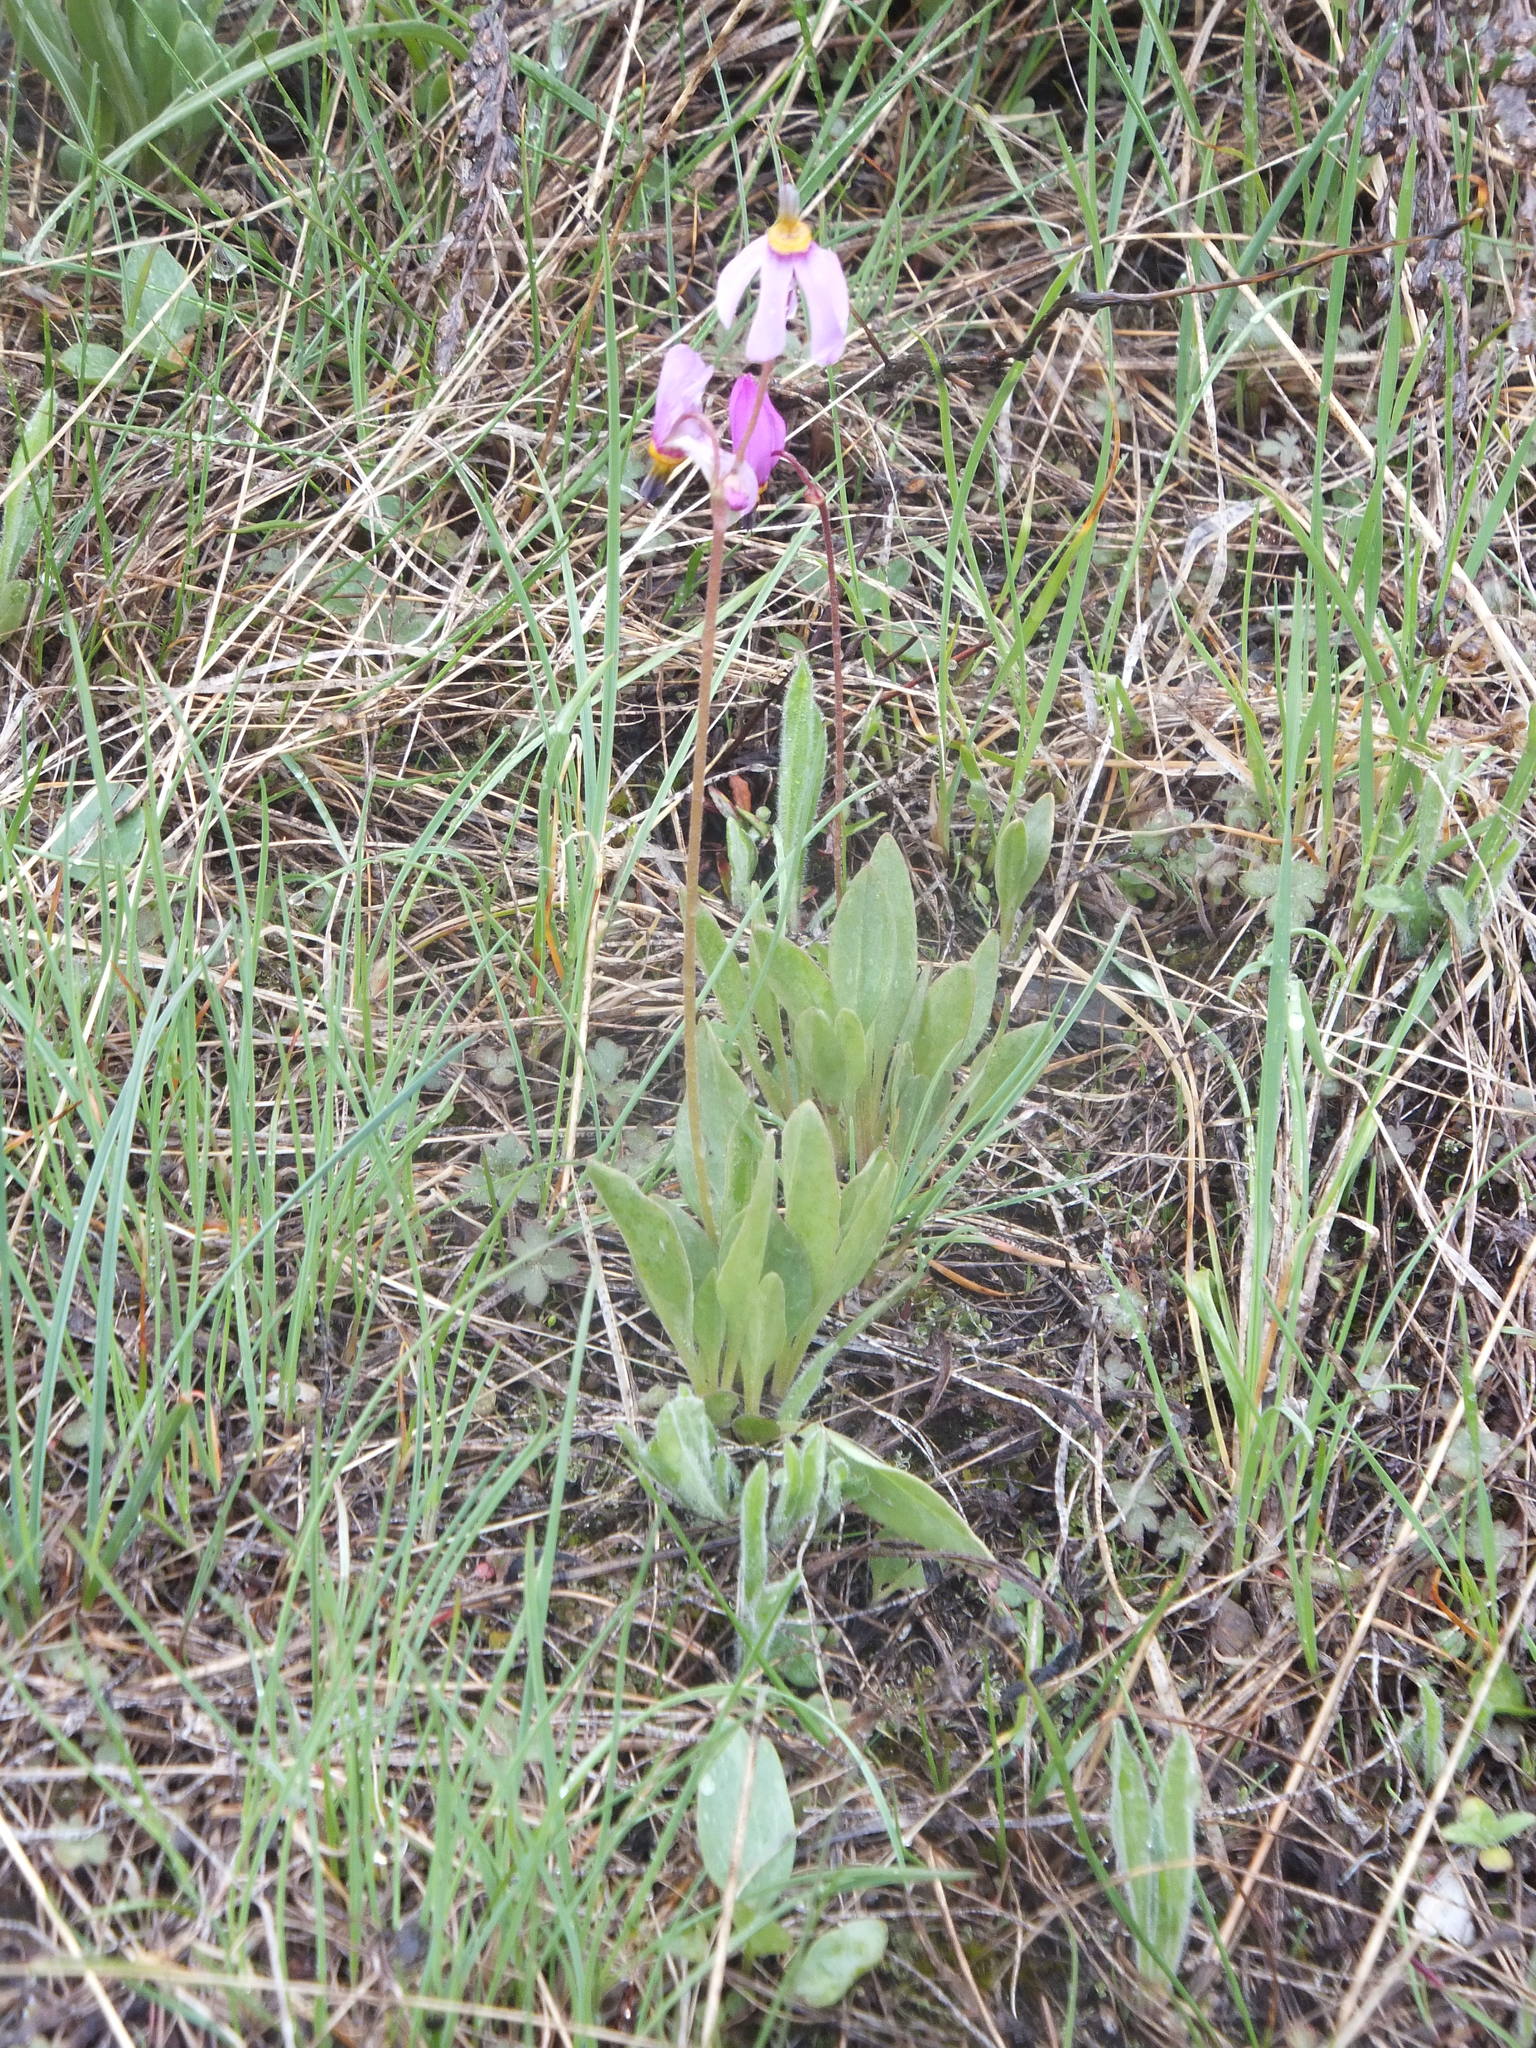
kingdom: Plantae
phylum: Tracheophyta
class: Magnoliopsida
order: Ericales
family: Primulaceae
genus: Dodecatheon
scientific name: Dodecatheon pulchellum
